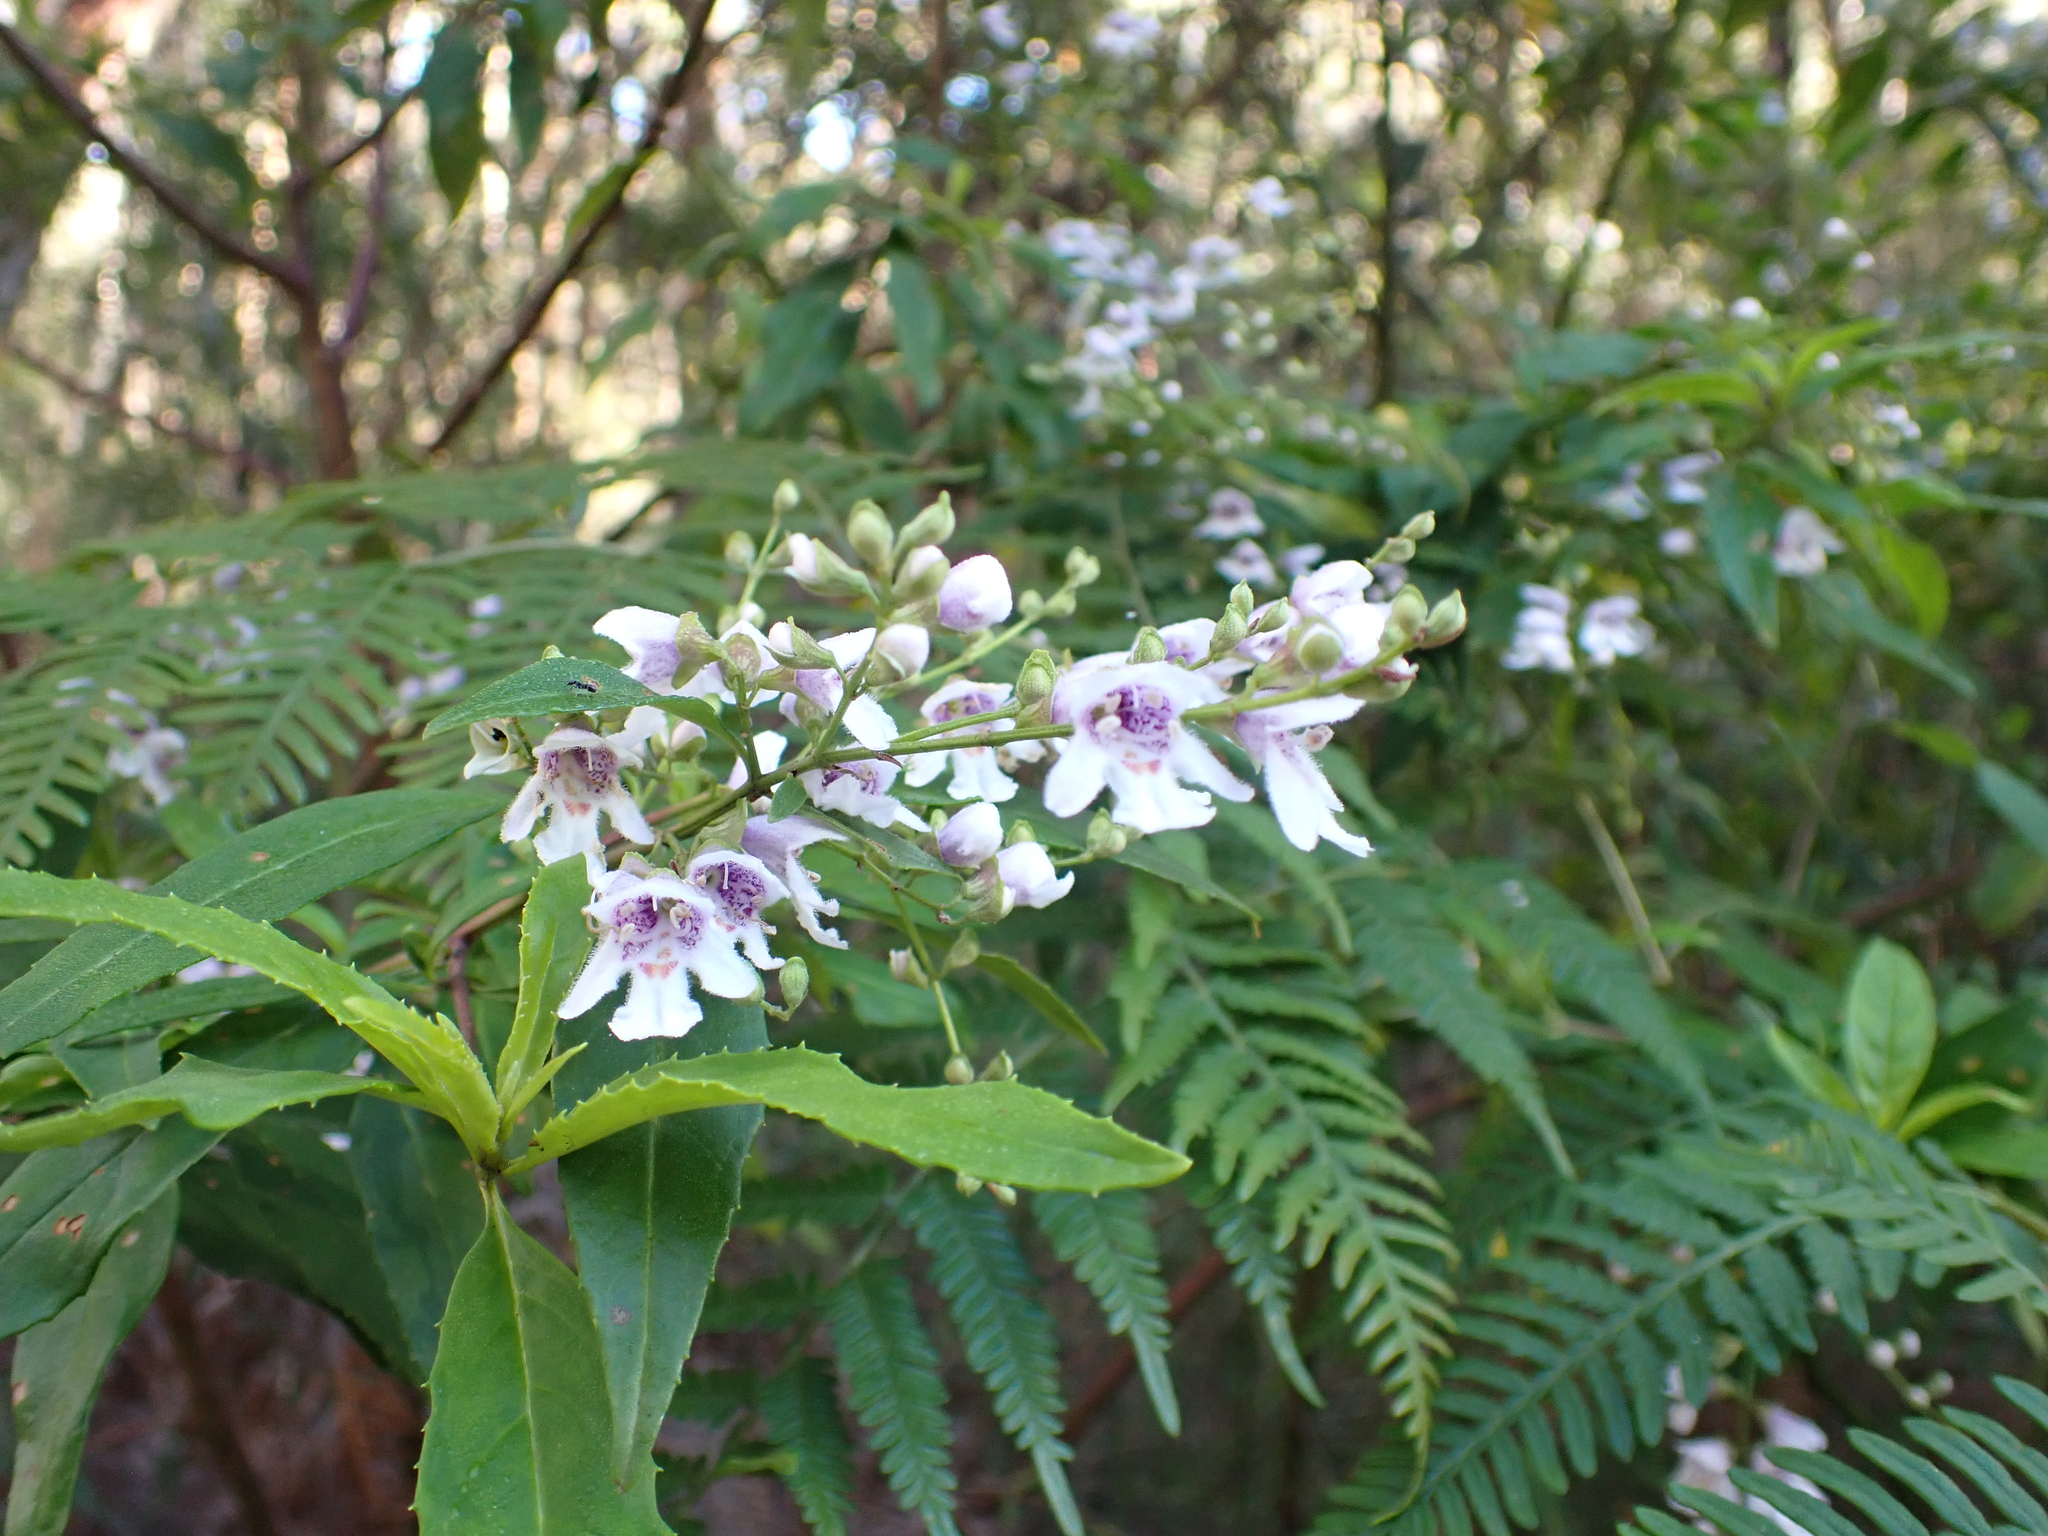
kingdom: Plantae
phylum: Tracheophyta
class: Magnoliopsida
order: Lamiales
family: Lamiaceae
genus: Prostanthera
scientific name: Prostanthera lasianthos
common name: Mountain-lilac
